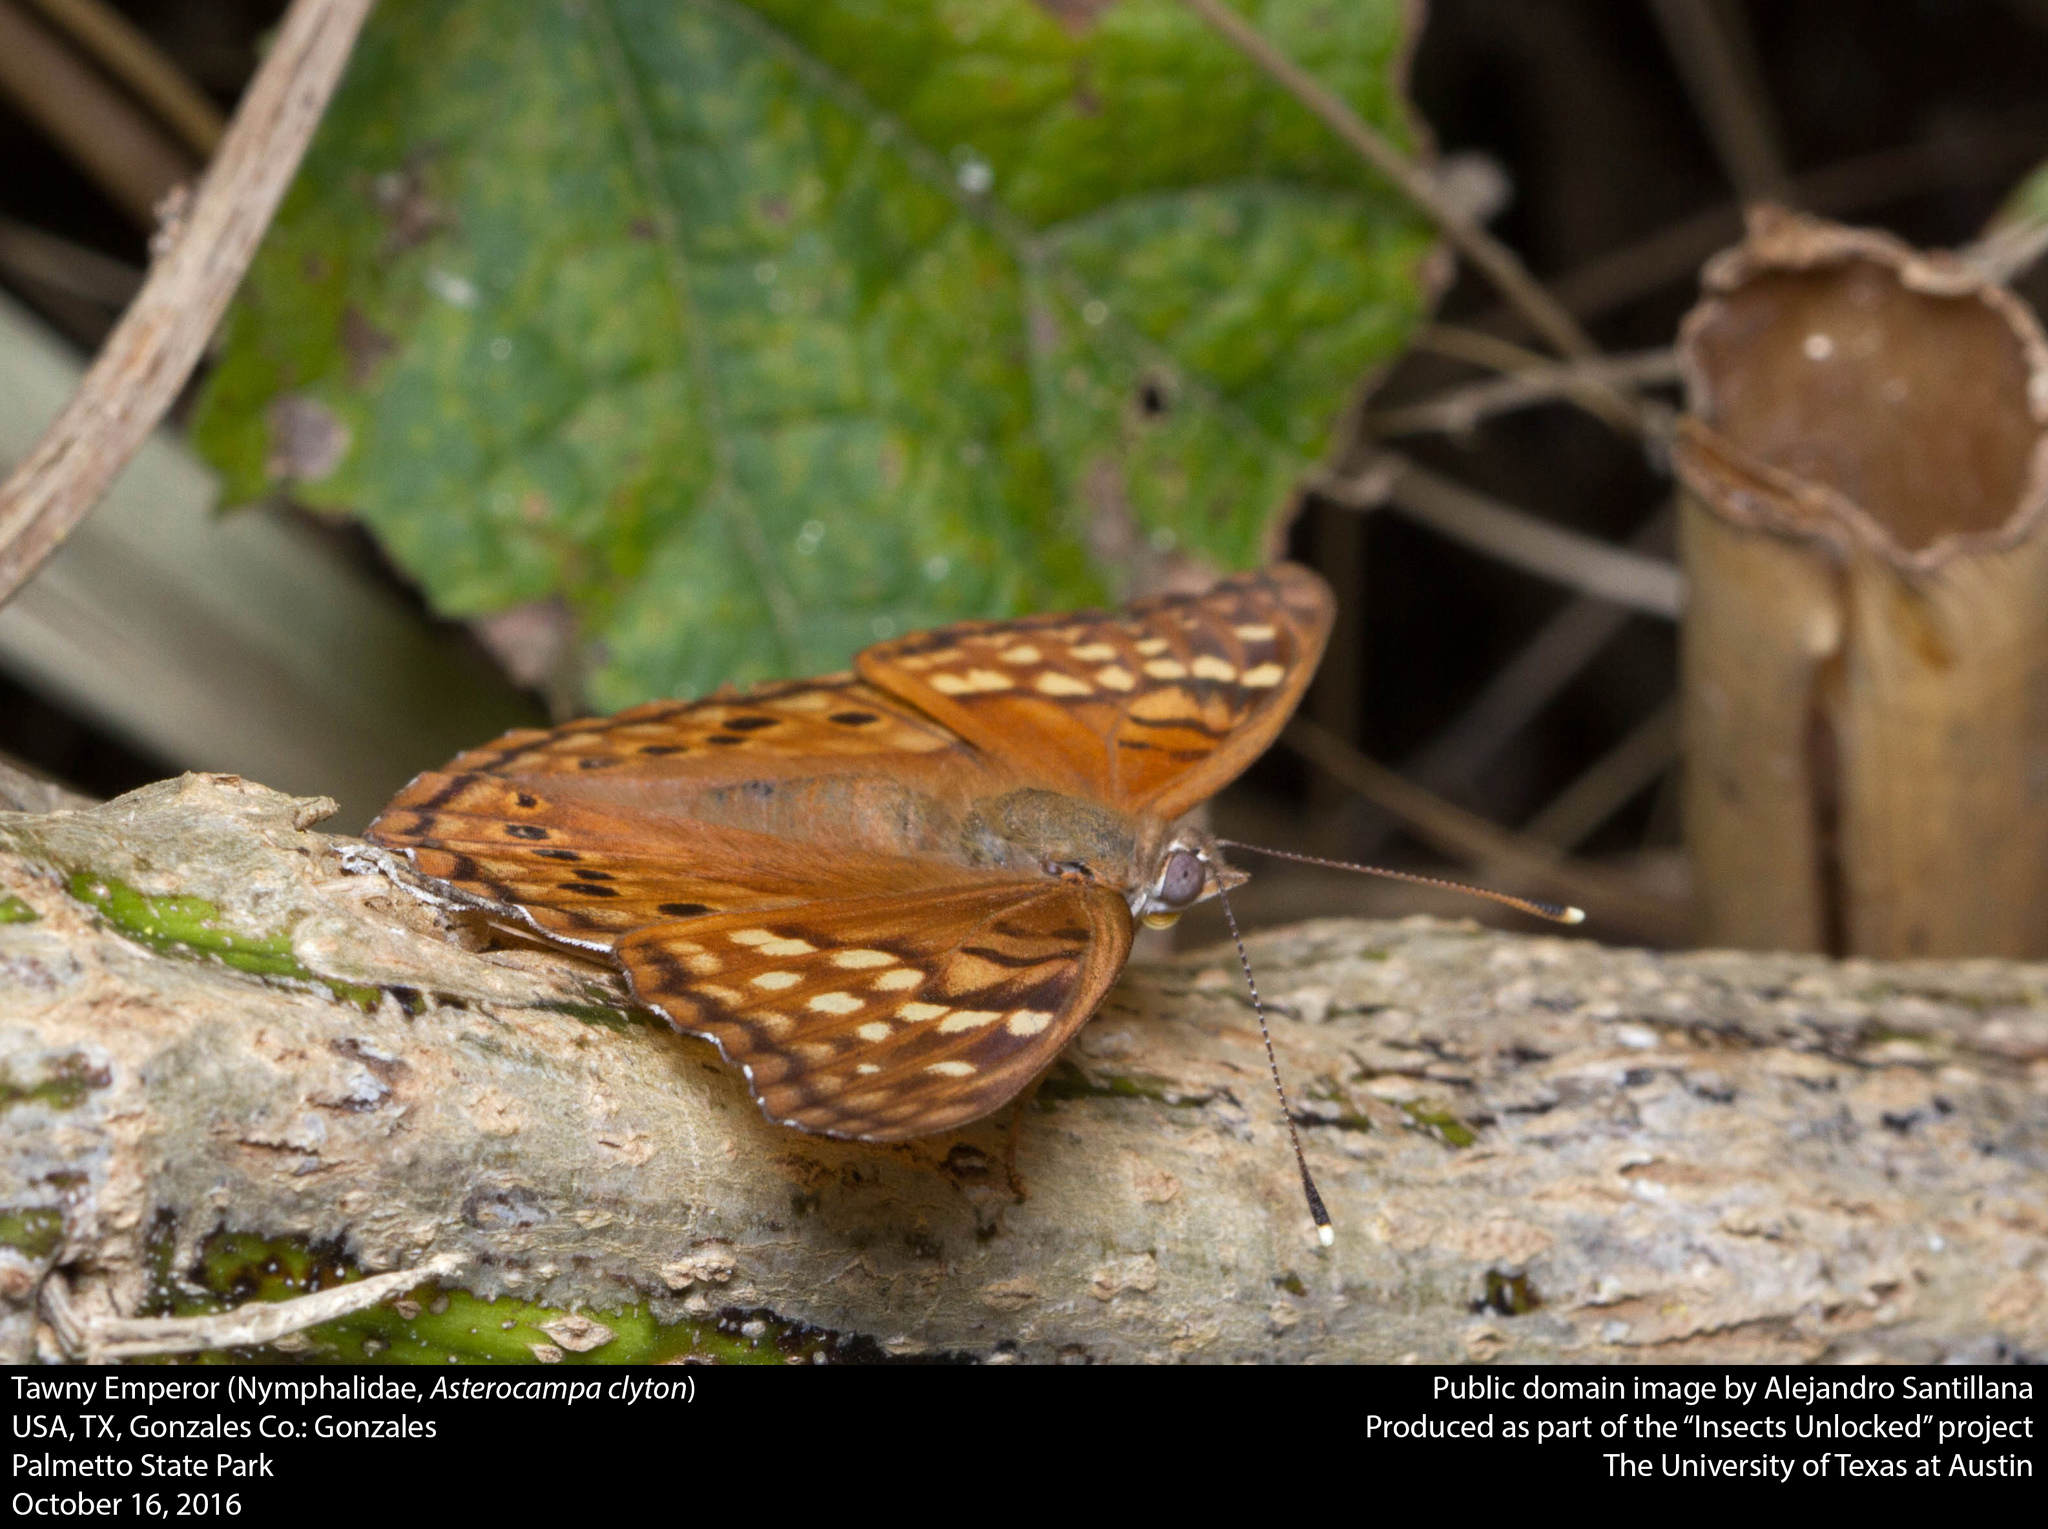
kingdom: Animalia
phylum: Arthropoda
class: Insecta
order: Lepidoptera
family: Nymphalidae
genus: Asterocampa
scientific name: Asterocampa clyton
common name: Tawny emperor
